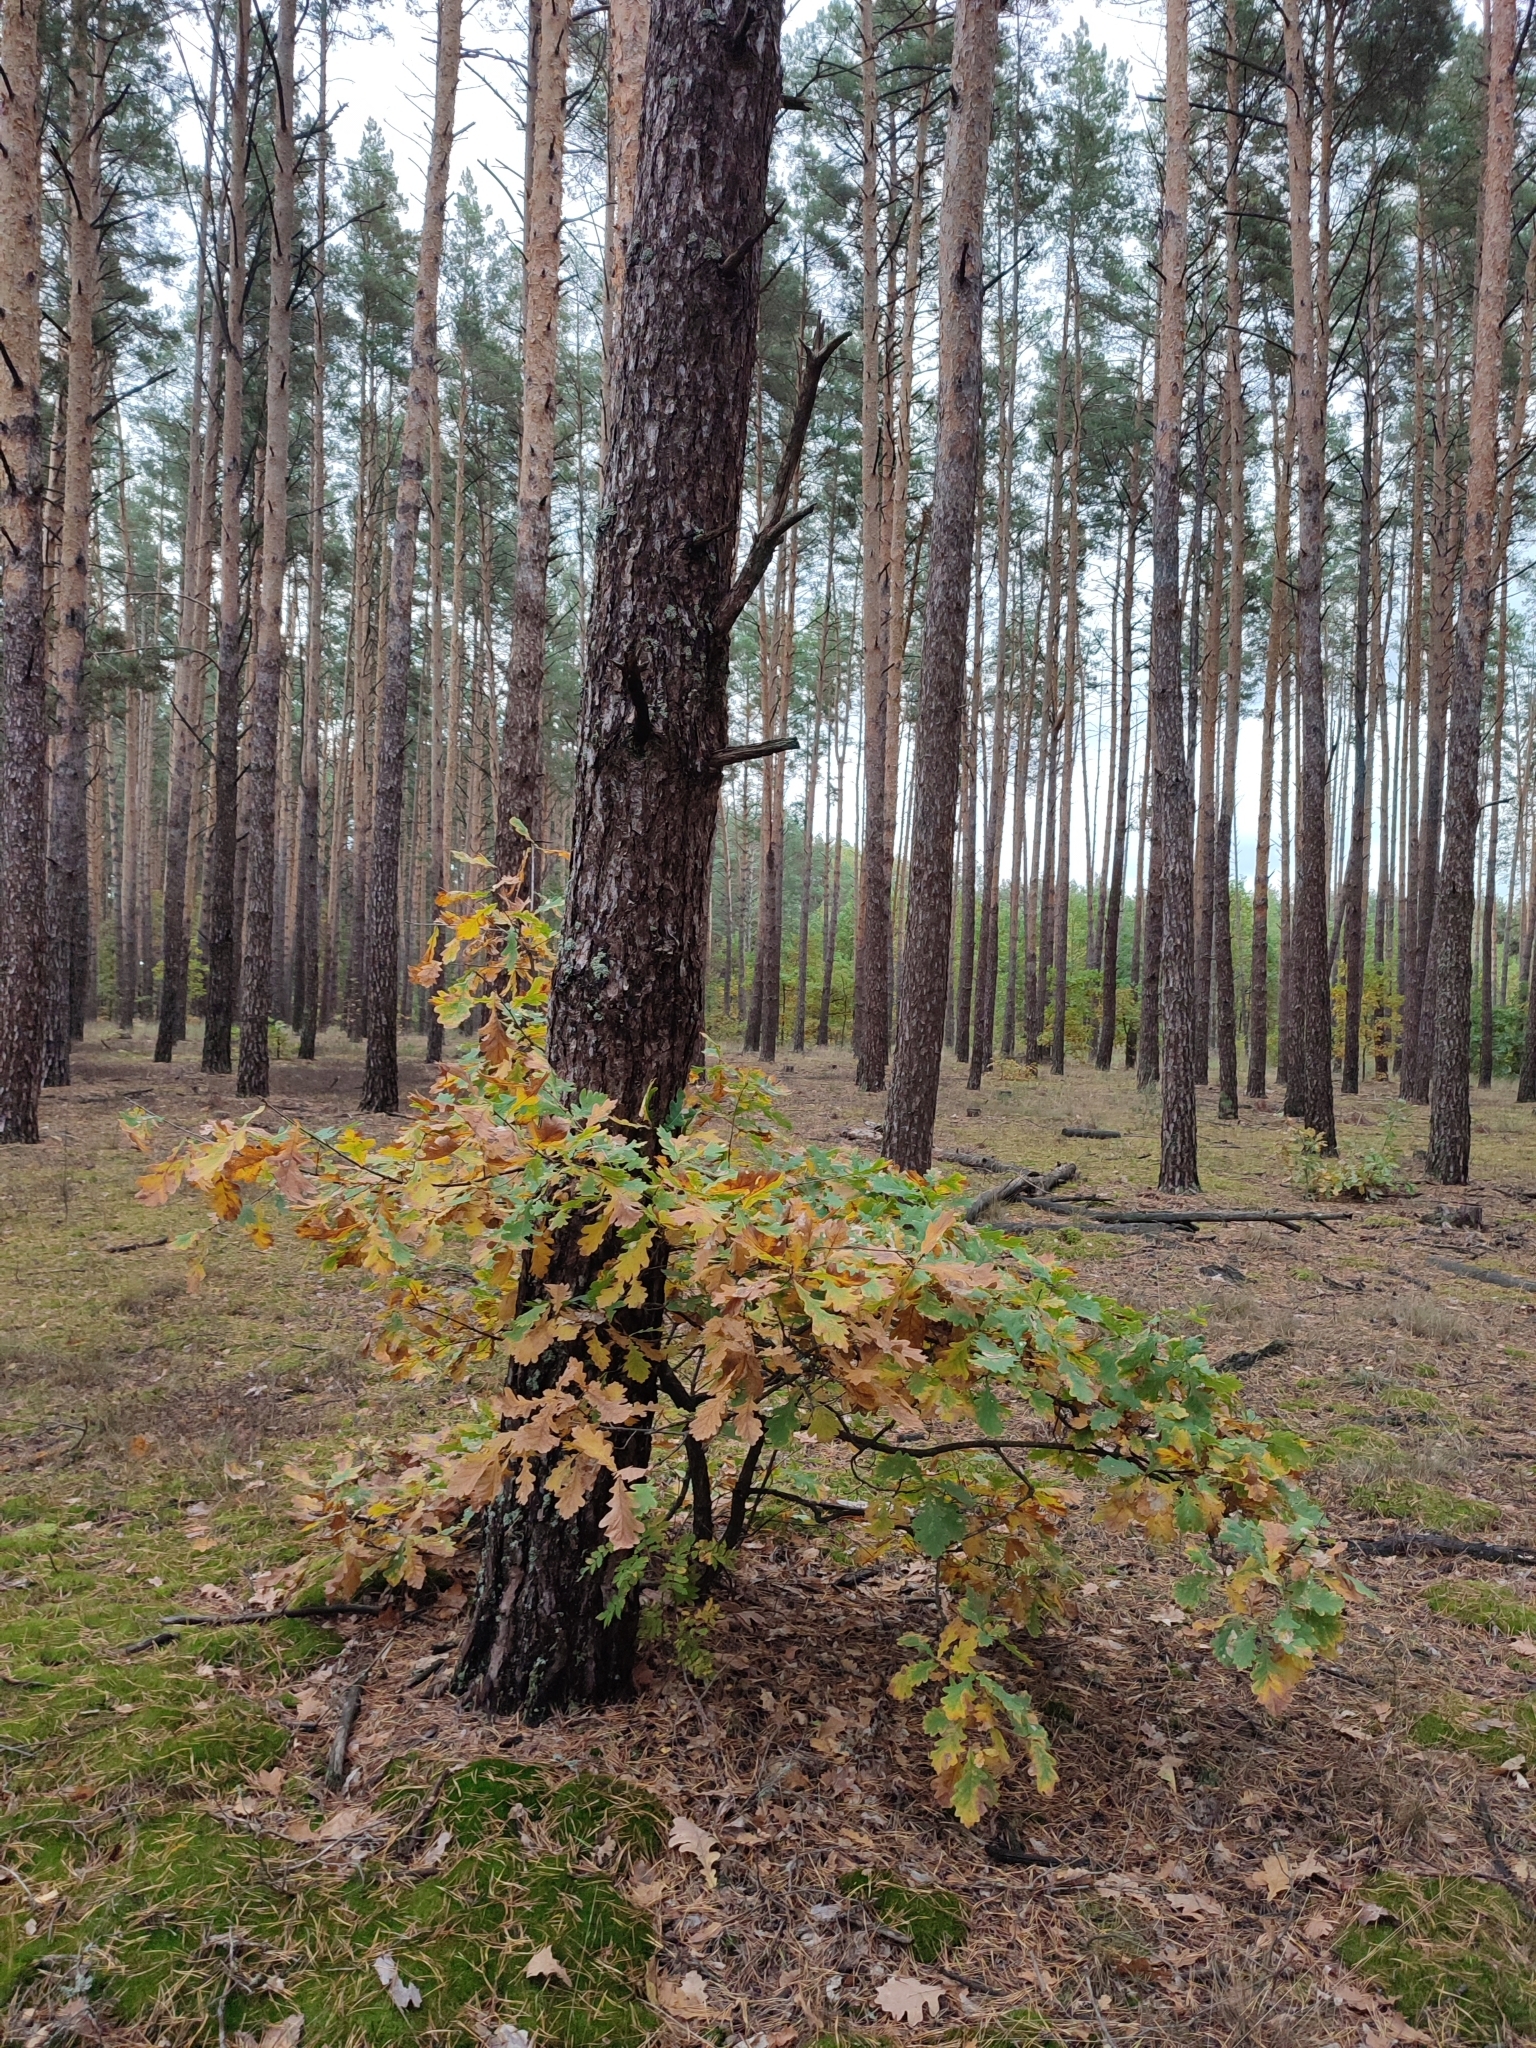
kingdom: Plantae
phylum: Tracheophyta
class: Magnoliopsida
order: Fagales
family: Fagaceae
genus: Quercus
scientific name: Quercus robur
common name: Pedunculate oak
